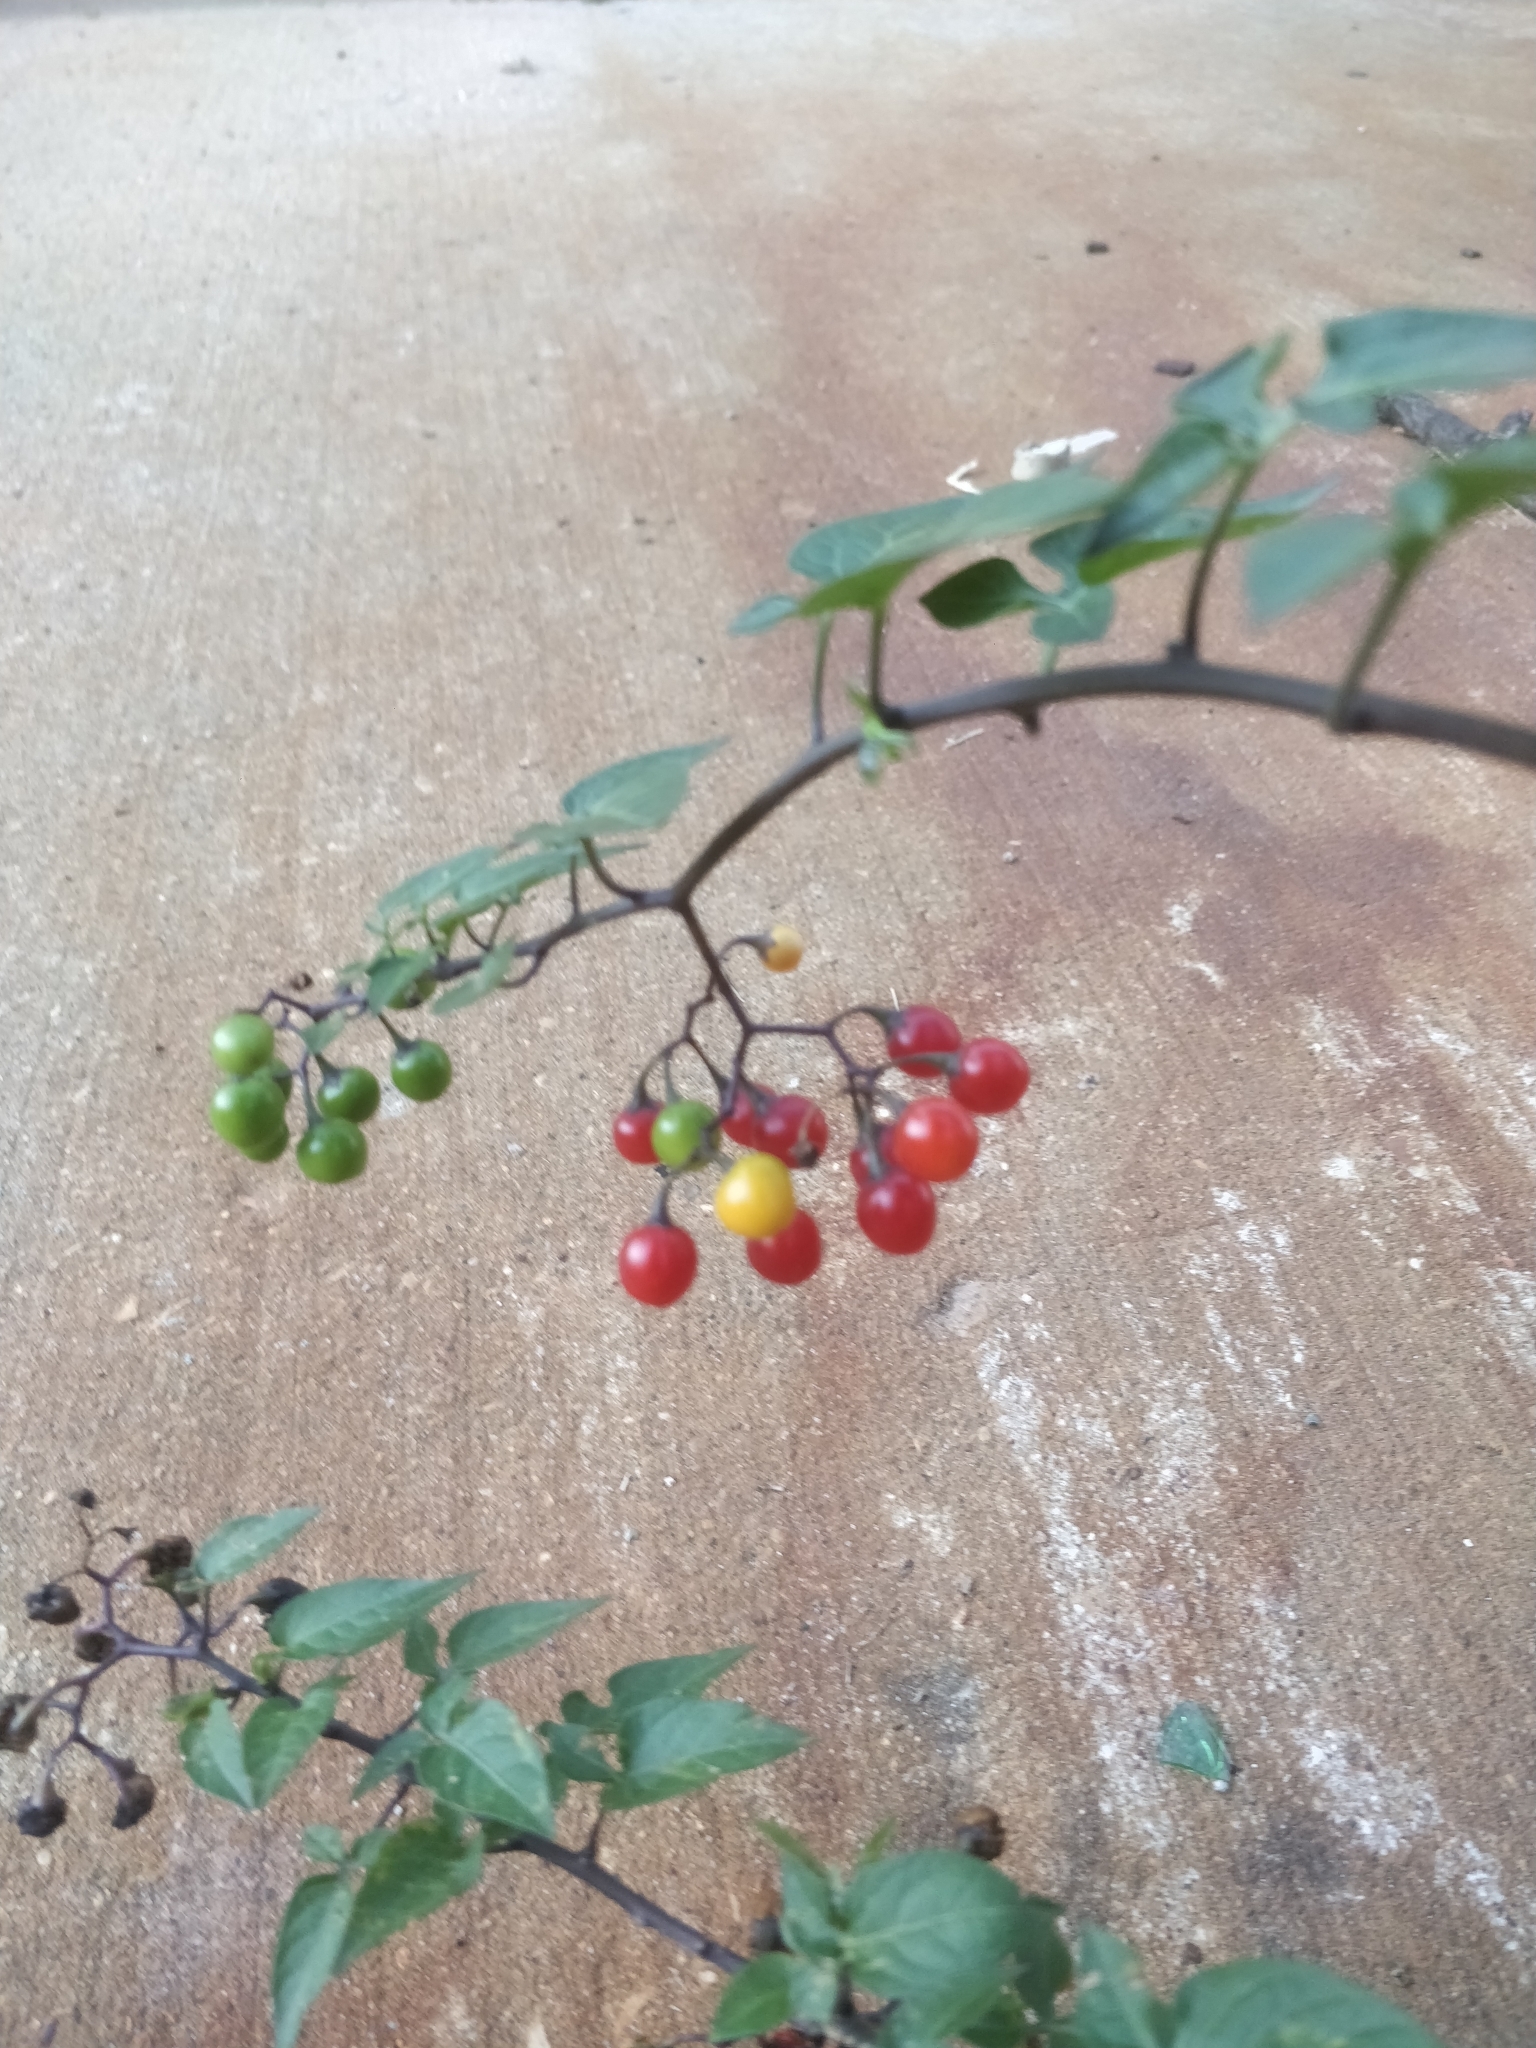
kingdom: Plantae
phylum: Tracheophyta
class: Magnoliopsida
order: Solanales
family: Solanaceae
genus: Solanum
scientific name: Solanum dulcamara
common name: Climbing nightshade
